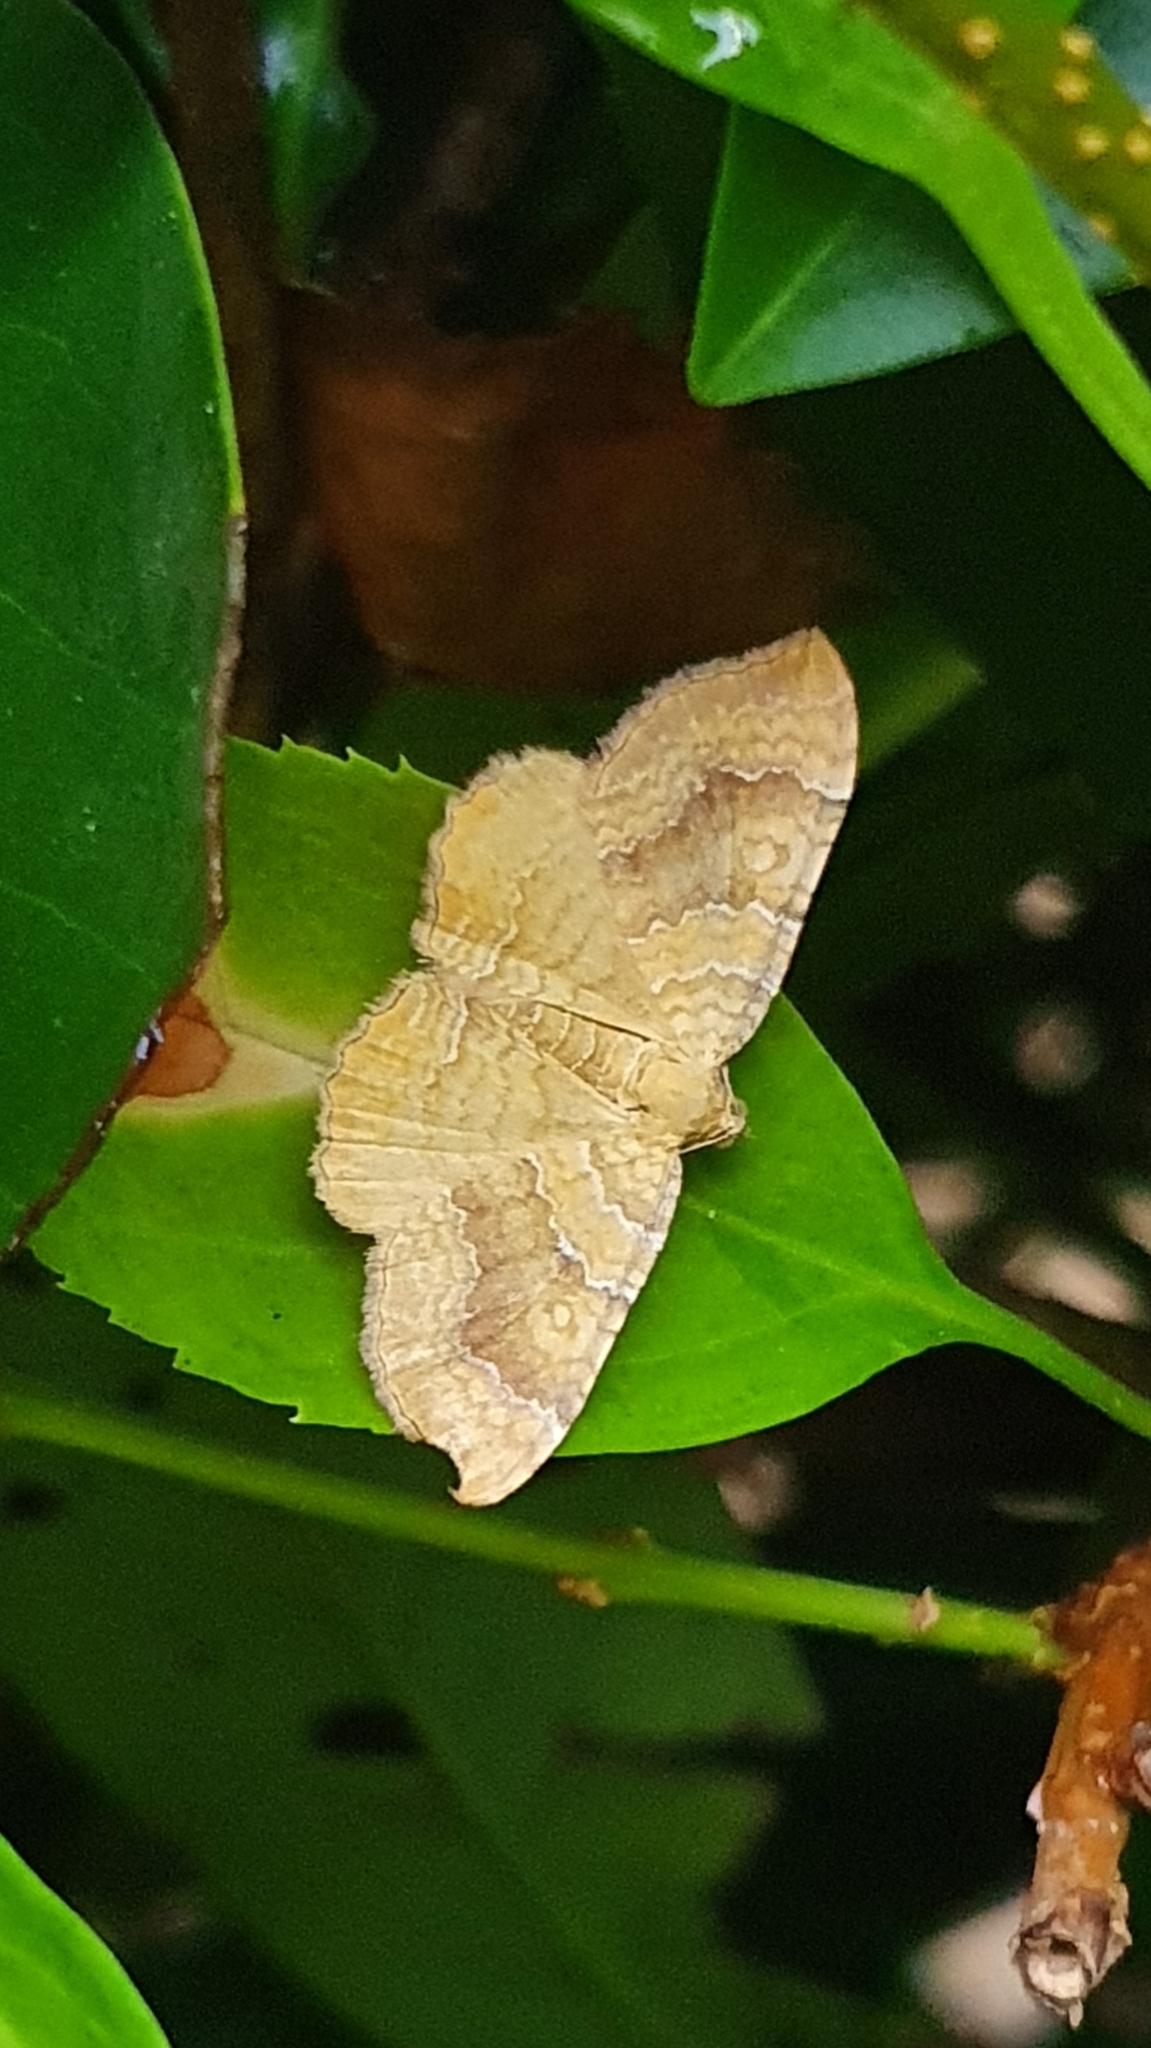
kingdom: Animalia
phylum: Arthropoda
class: Insecta
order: Lepidoptera
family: Geometridae
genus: Camptogramma
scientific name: Camptogramma bilineata
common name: Yellow shell
